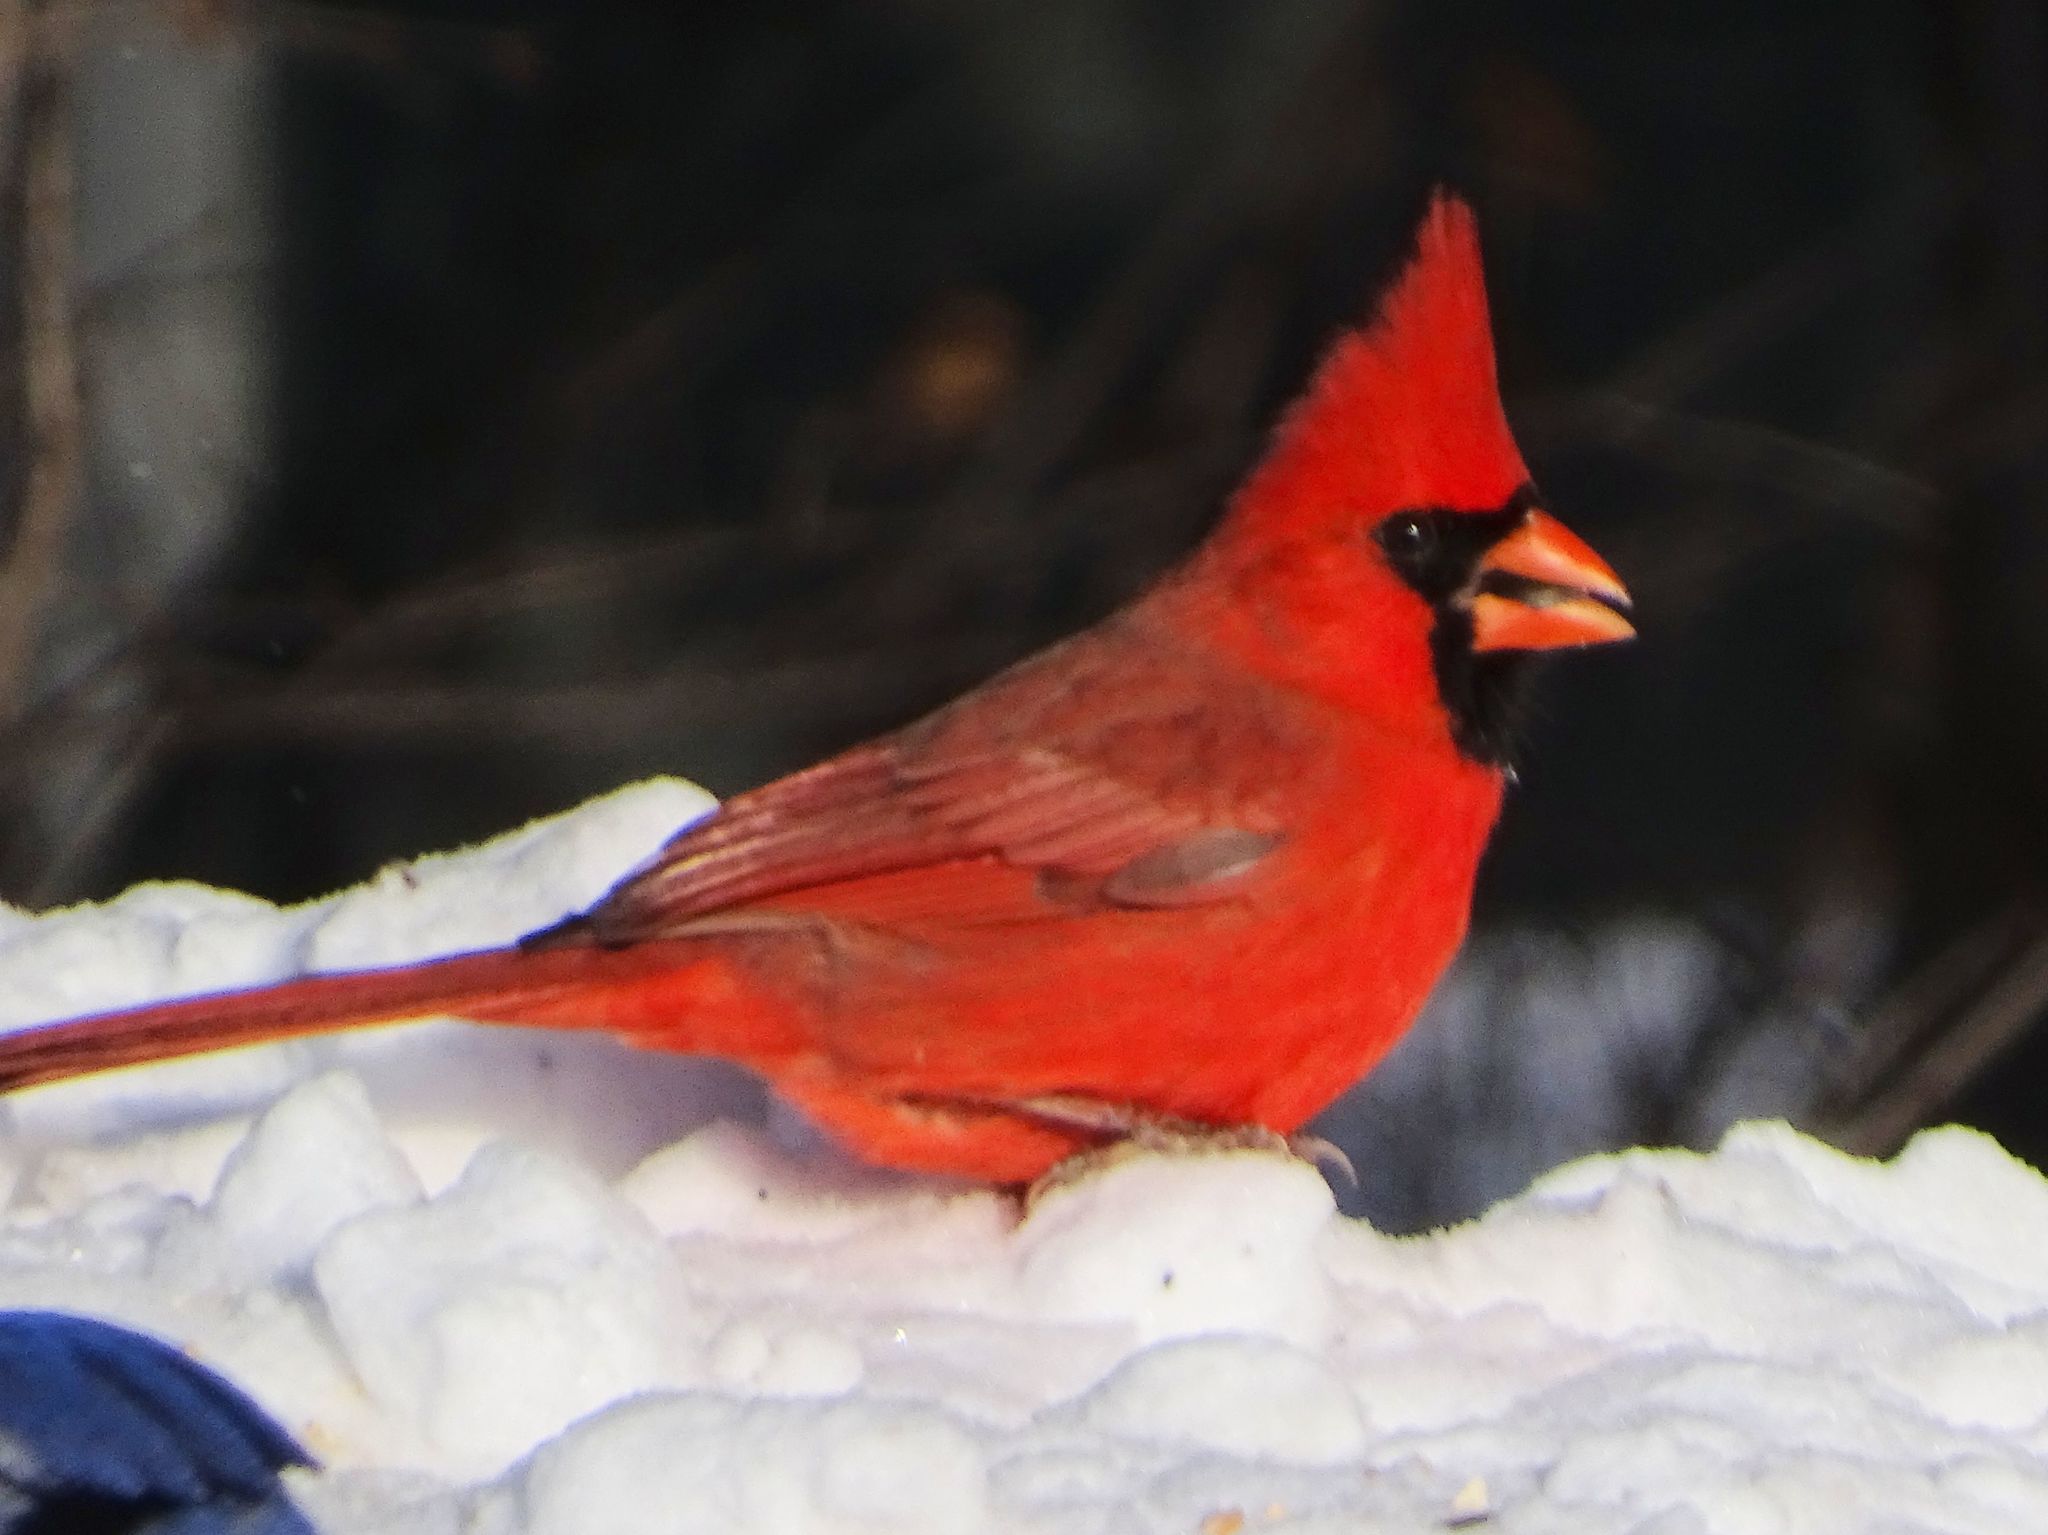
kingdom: Animalia
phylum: Chordata
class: Aves
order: Passeriformes
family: Cardinalidae
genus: Cardinalis
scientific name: Cardinalis cardinalis
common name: Northern cardinal
